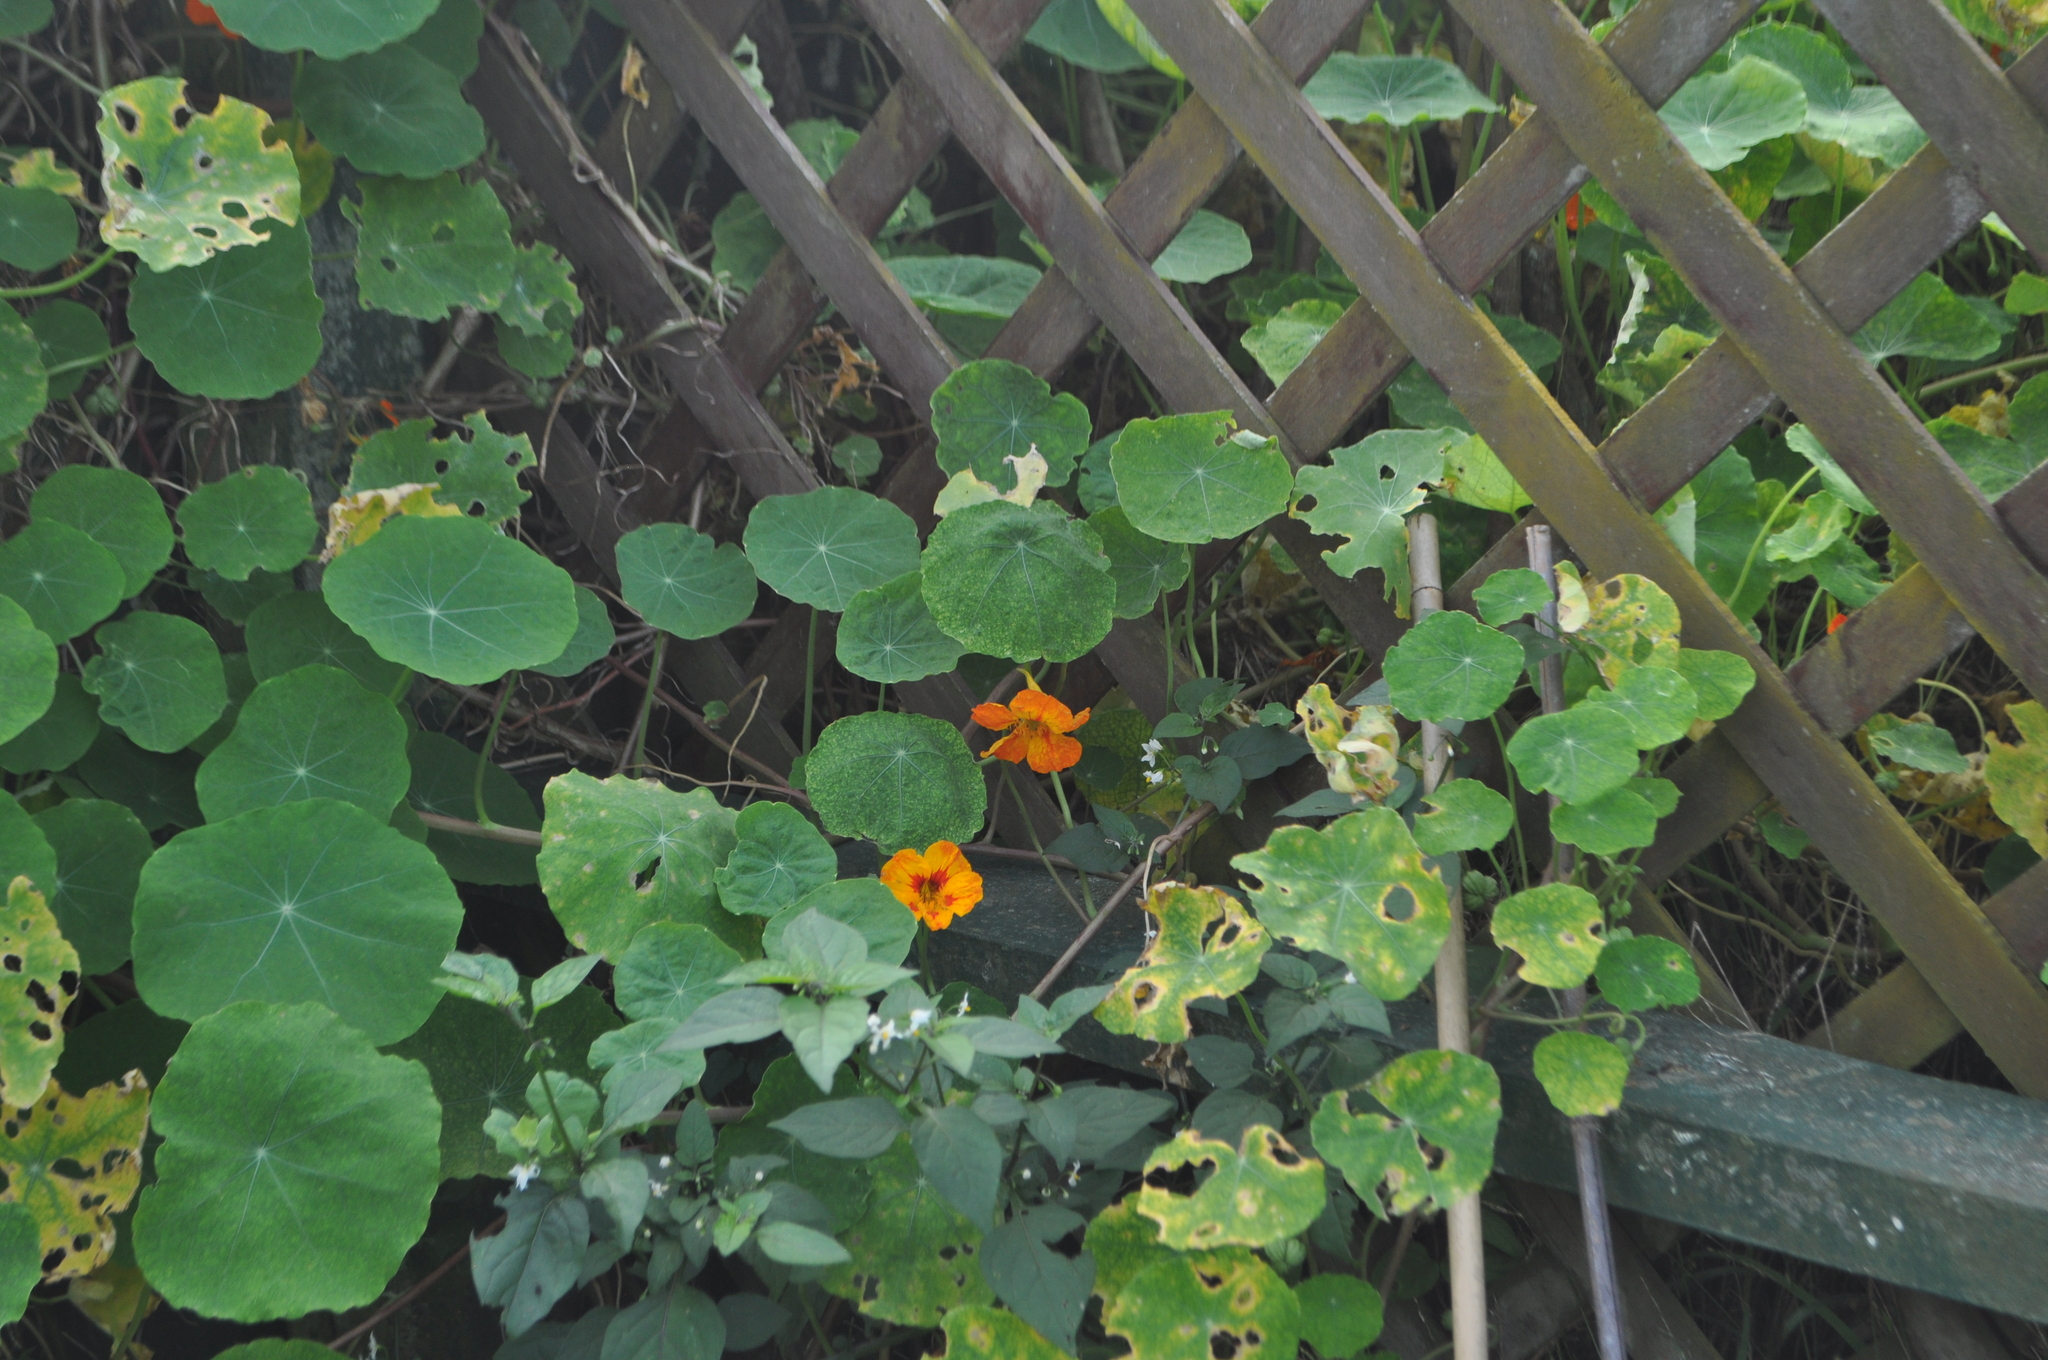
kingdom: Plantae
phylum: Tracheophyta
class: Magnoliopsida
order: Brassicales
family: Tropaeolaceae
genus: Tropaeolum
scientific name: Tropaeolum majus
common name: Nasturtium
